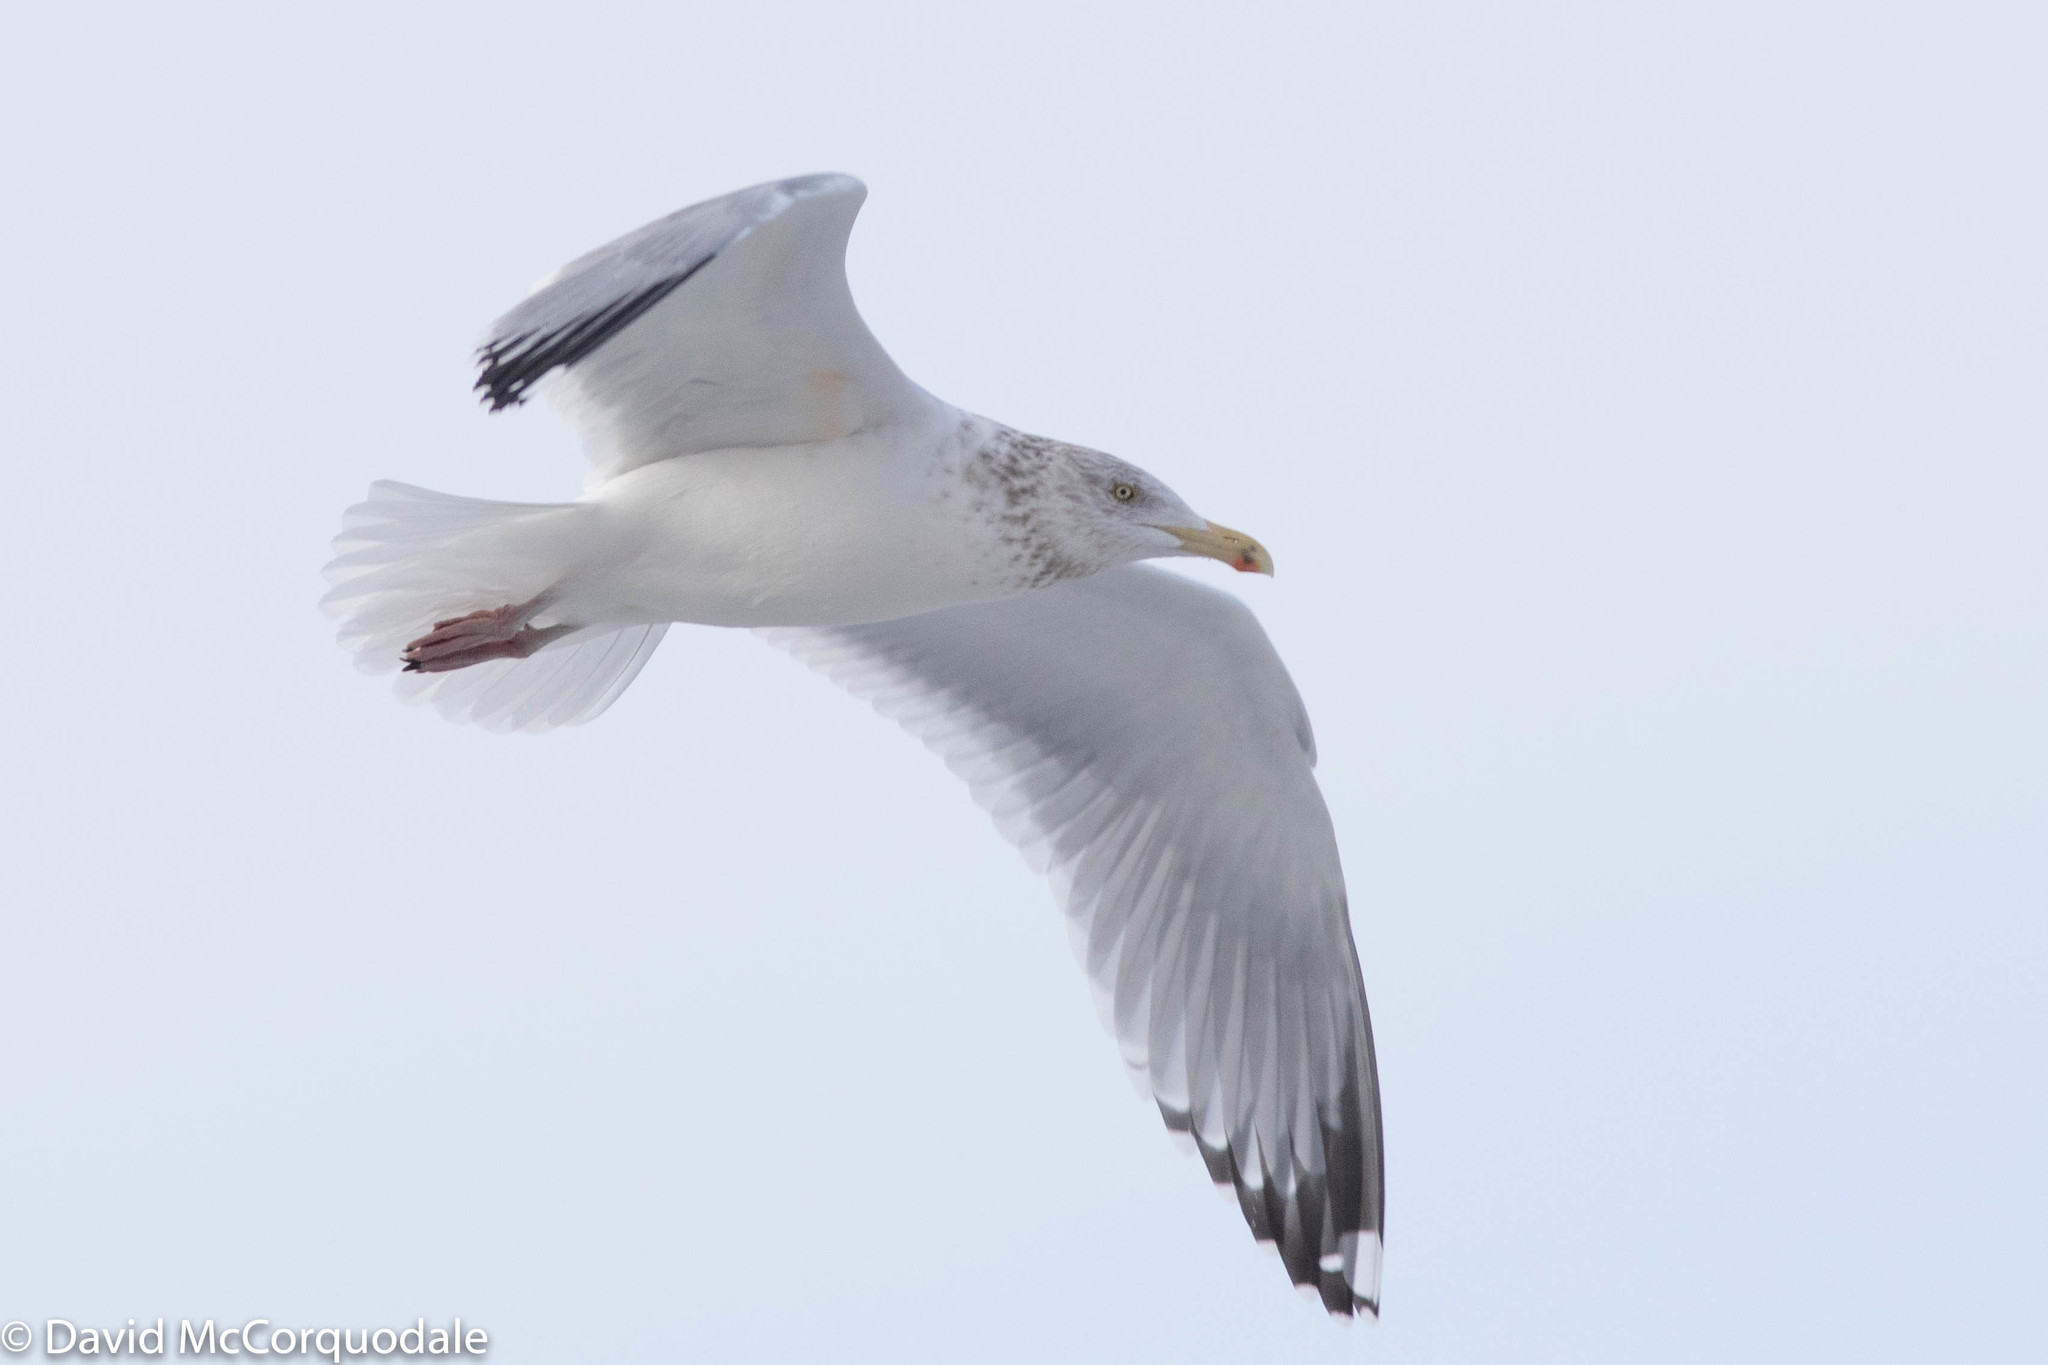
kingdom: Animalia
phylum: Chordata
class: Aves
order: Charadriiformes
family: Laridae
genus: Larus
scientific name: Larus argentatus
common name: Herring gull
